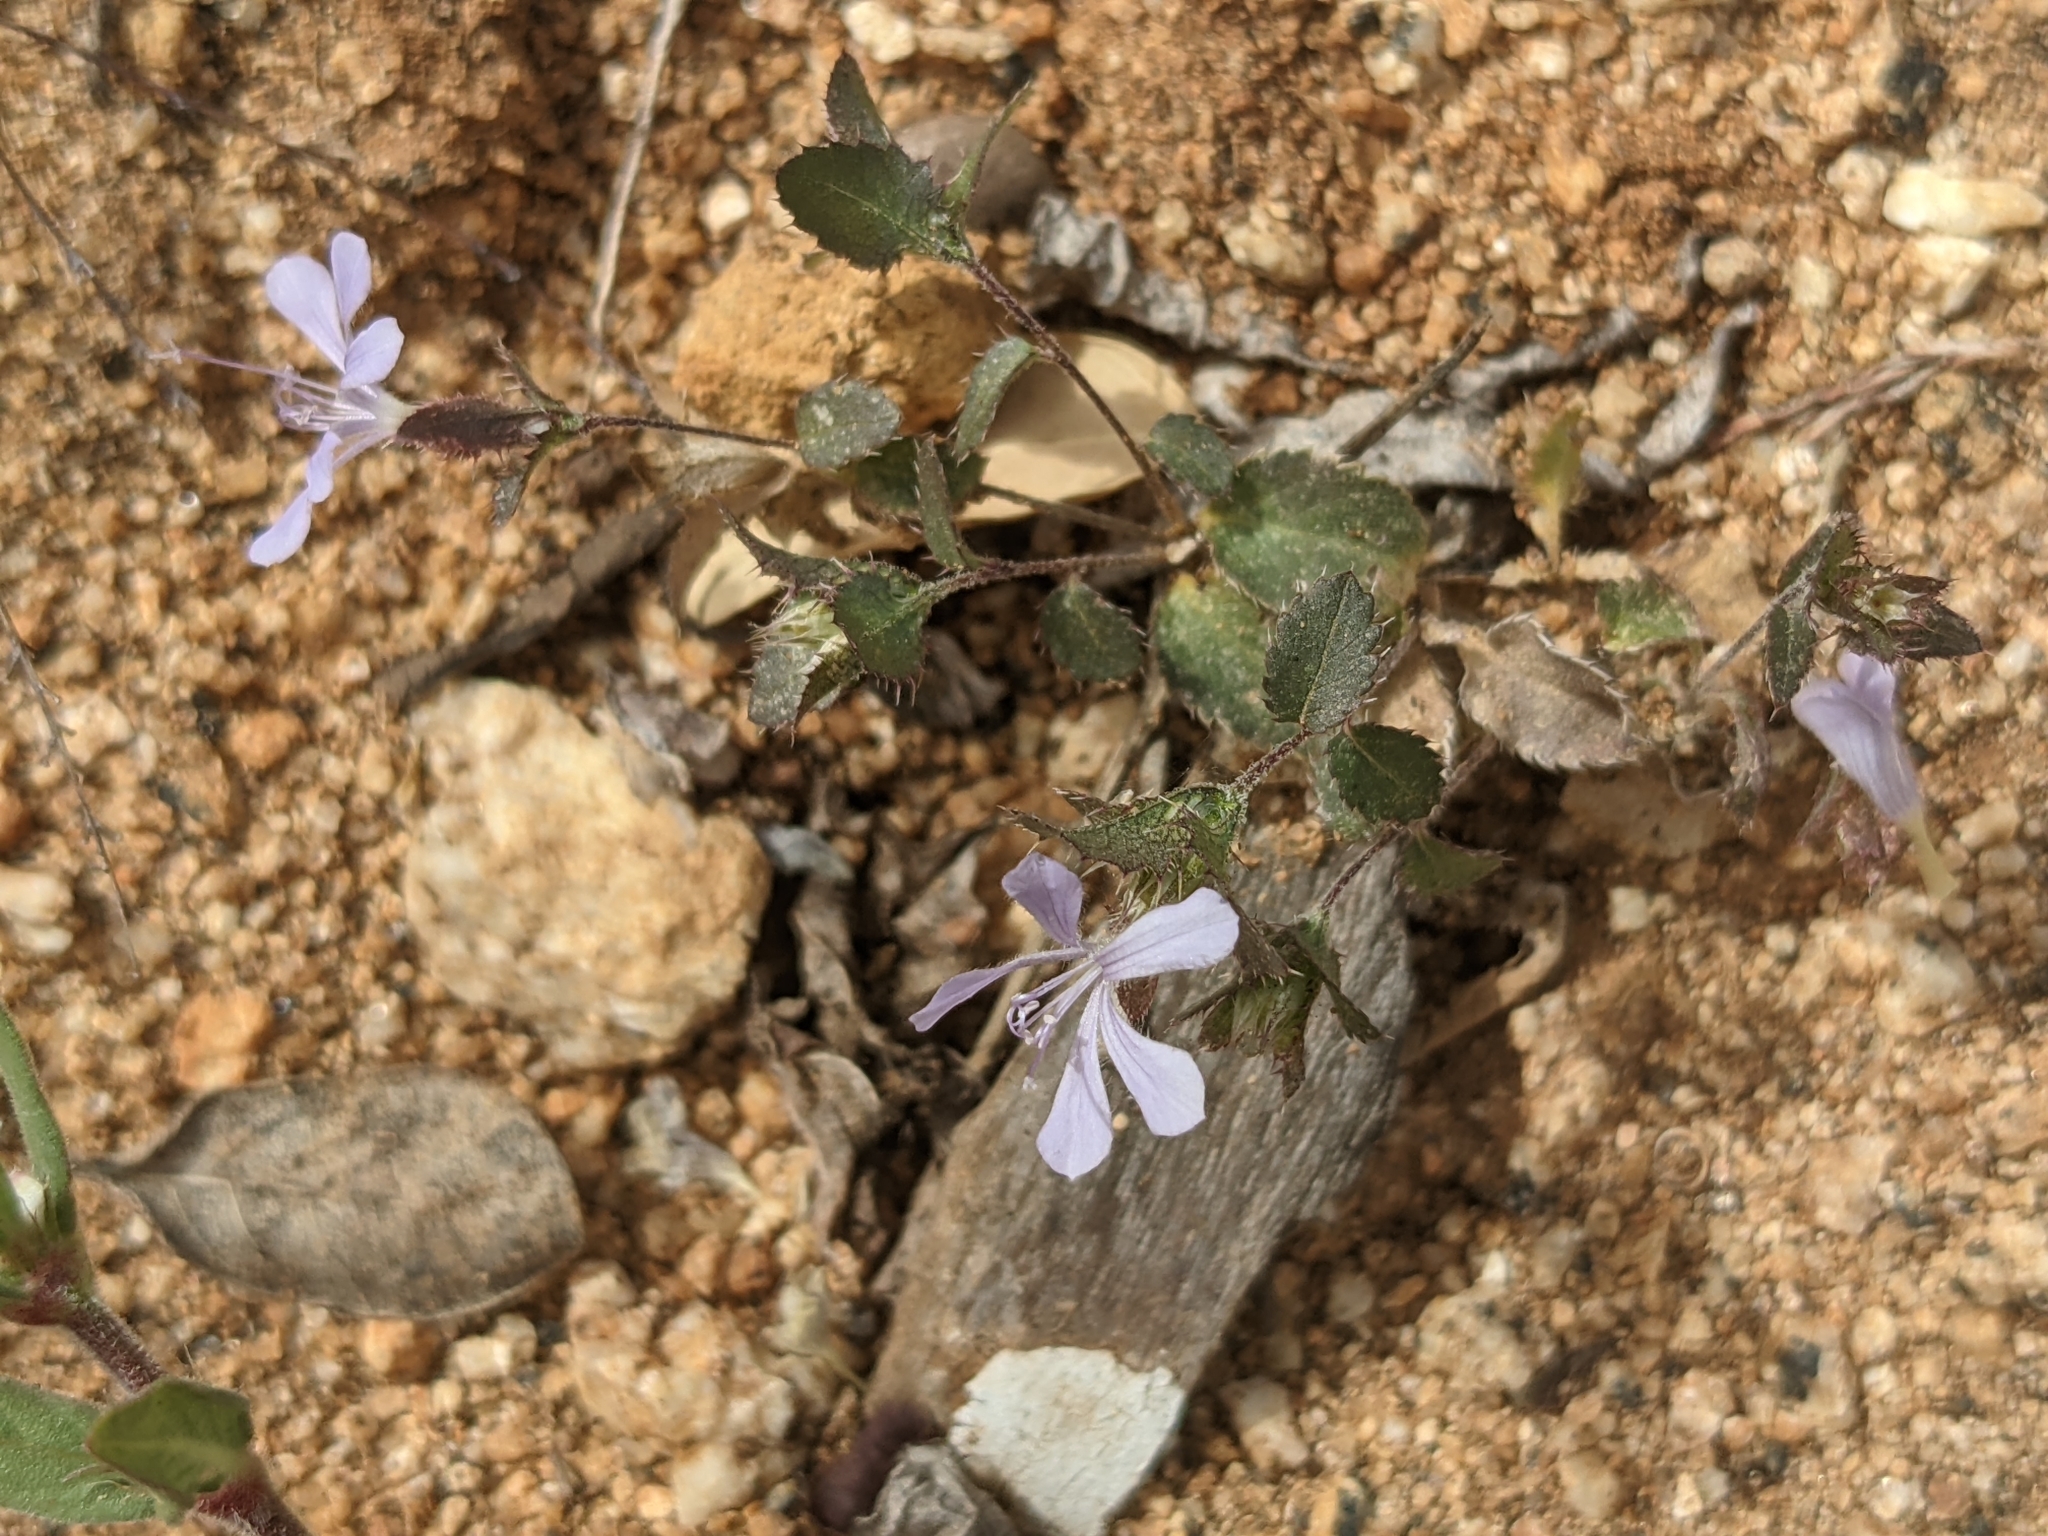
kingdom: Plantae
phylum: Tracheophyta
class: Magnoliopsida
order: Ericales
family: Polemoniaceae
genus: Loeselia
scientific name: Loeselia ciliata
